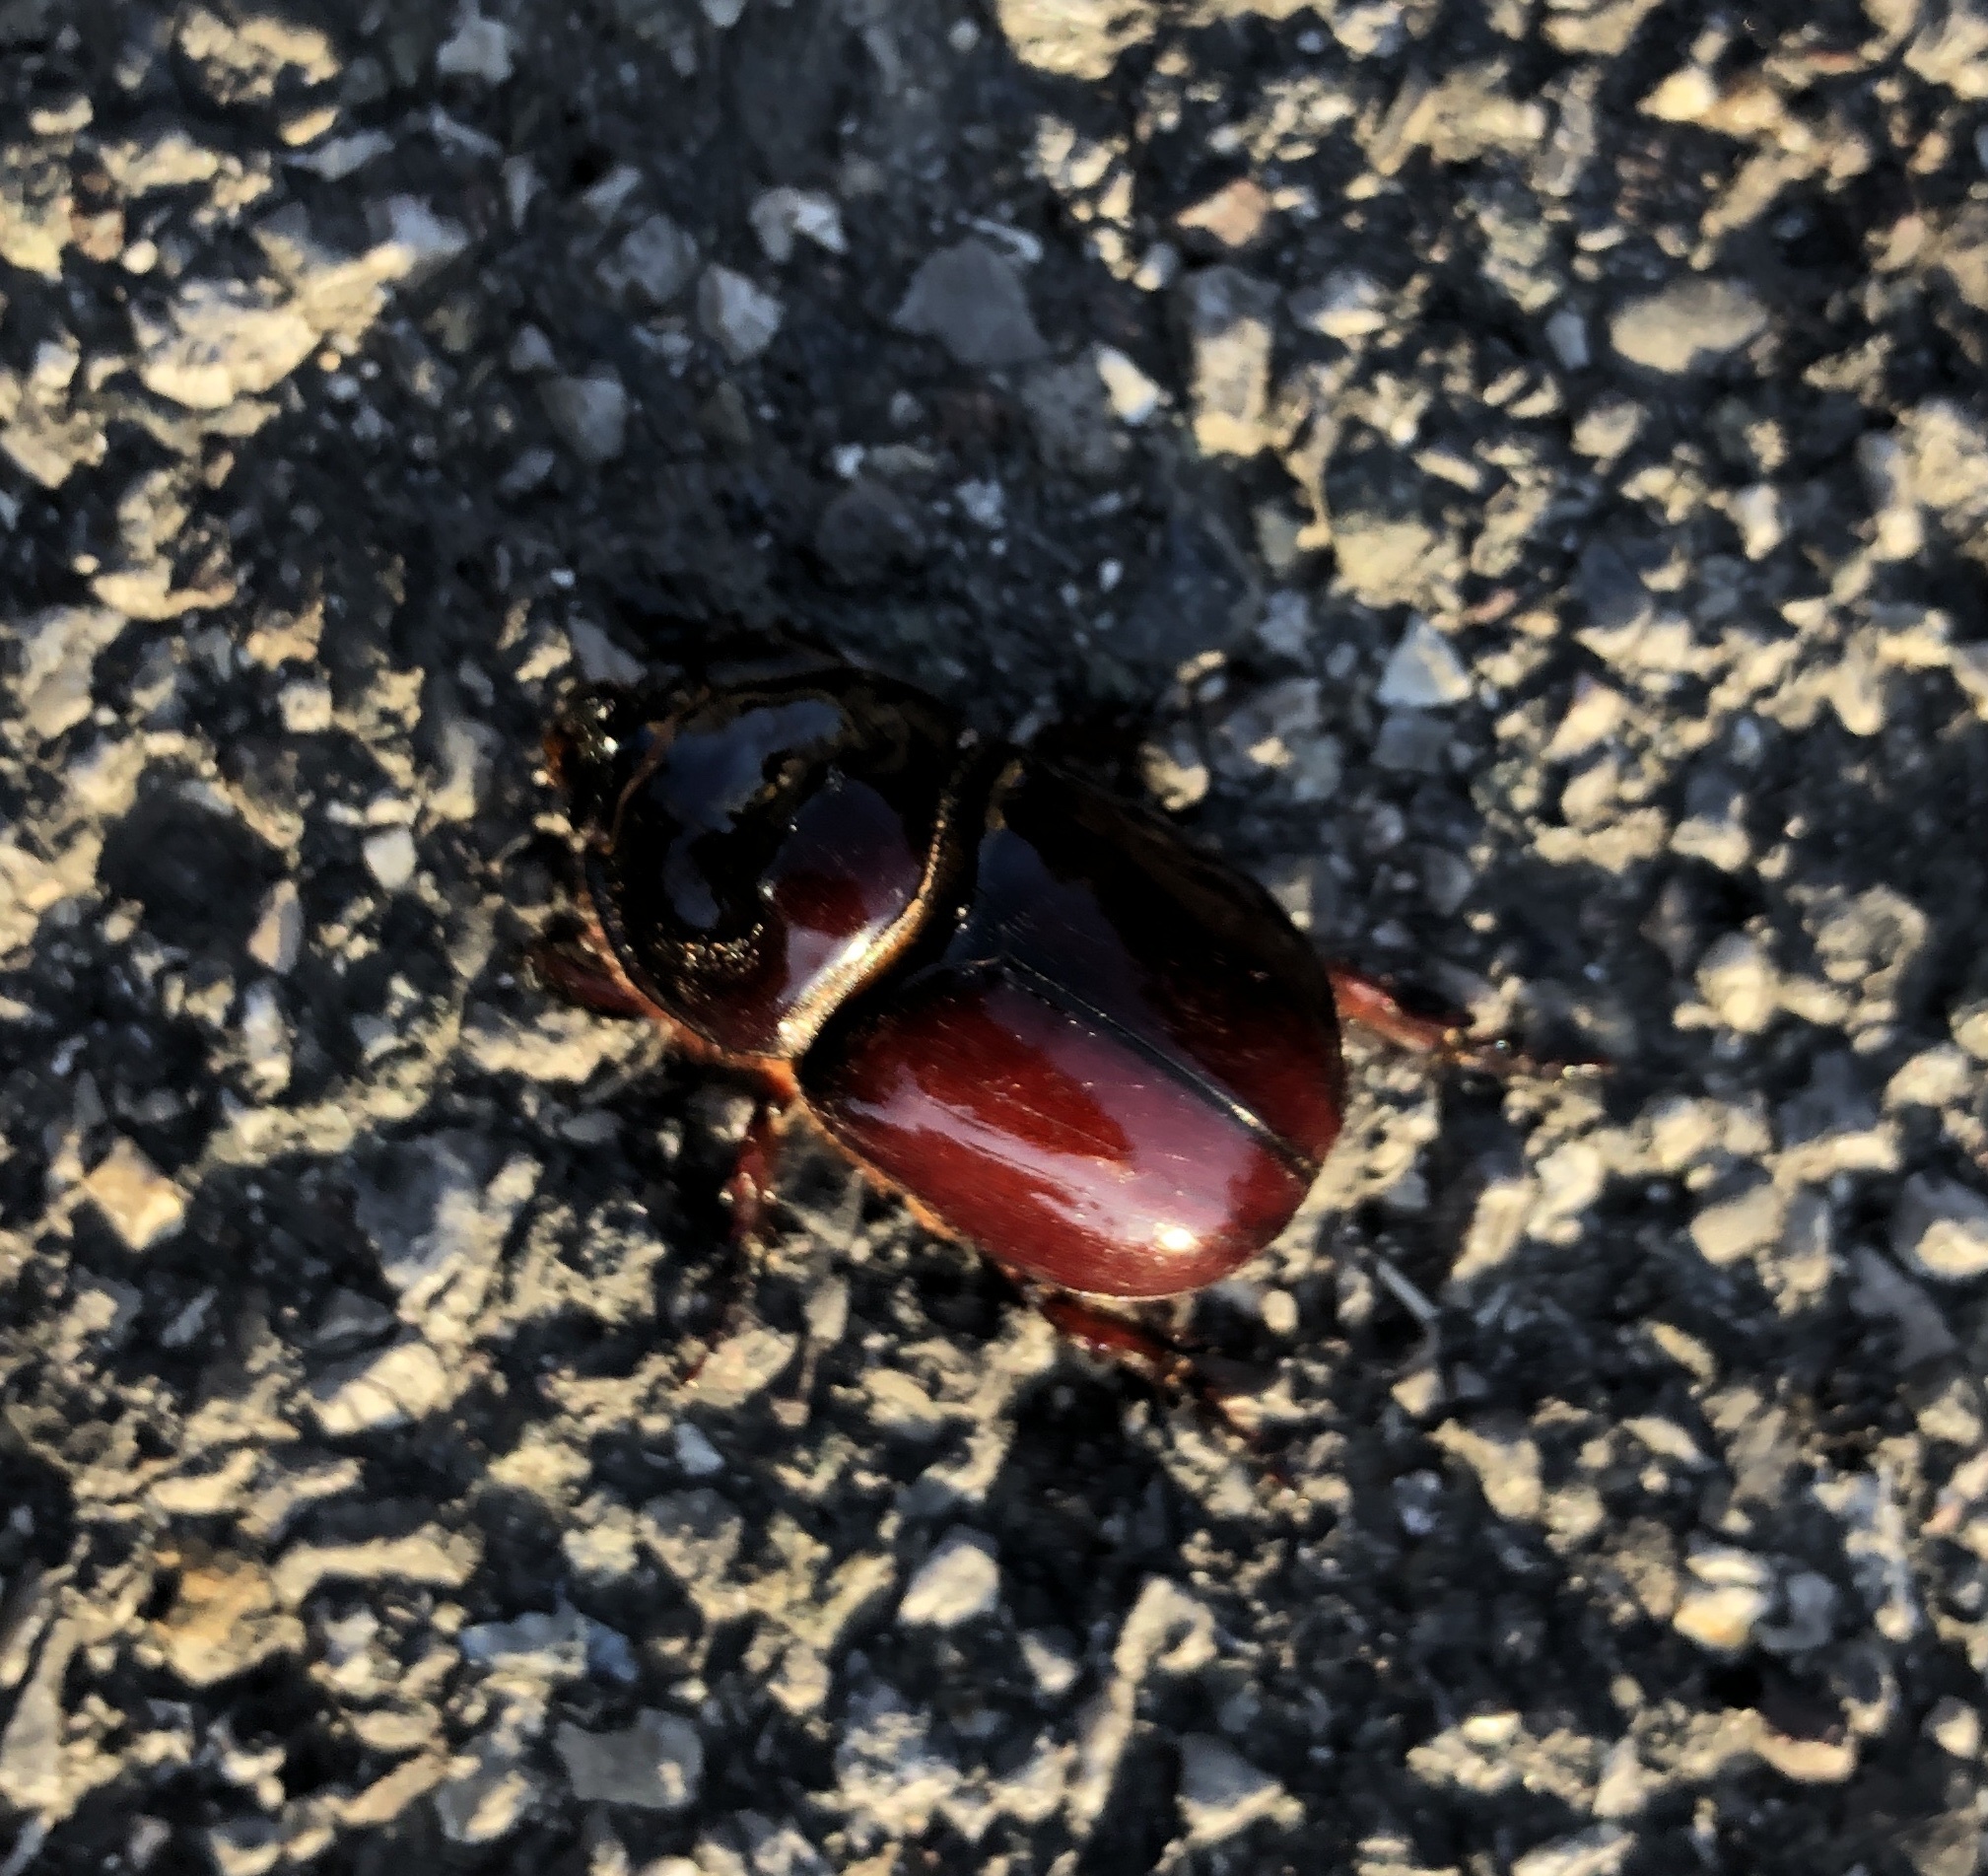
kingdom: Animalia
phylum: Arthropoda
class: Insecta
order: Coleoptera
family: Scarabaeidae
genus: Oryctes
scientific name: Oryctes nasicornis
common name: European rhinoceros beetle
